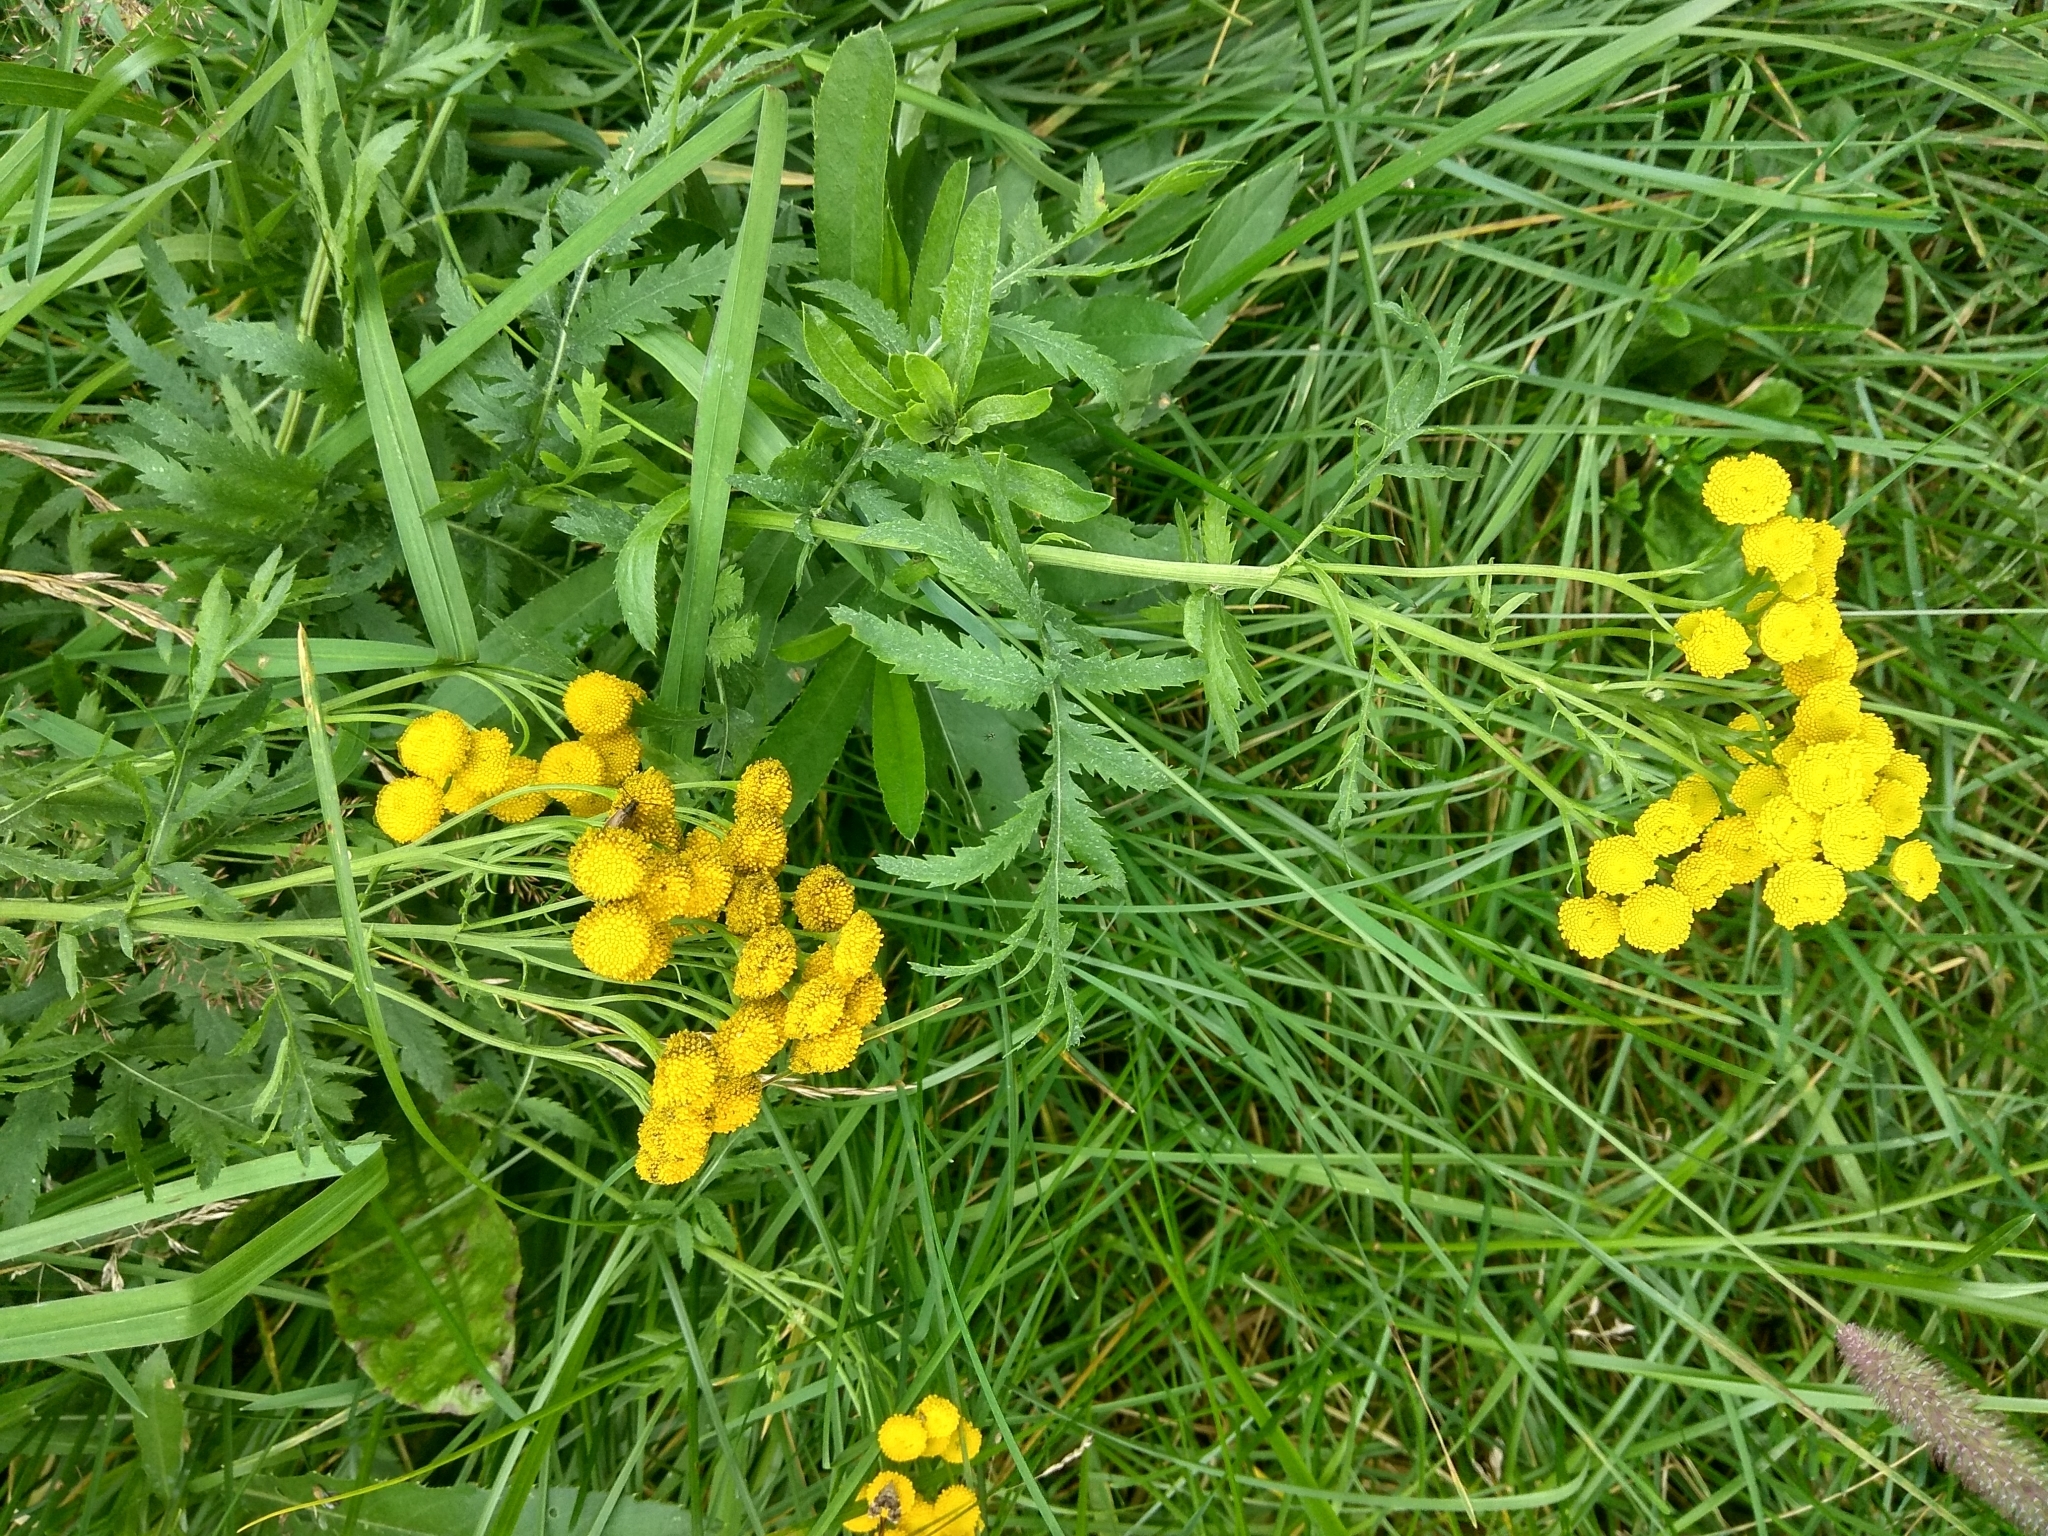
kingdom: Plantae
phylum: Tracheophyta
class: Magnoliopsida
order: Asterales
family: Asteraceae
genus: Tanacetum
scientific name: Tanacetum vulgare
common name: Common tansy
